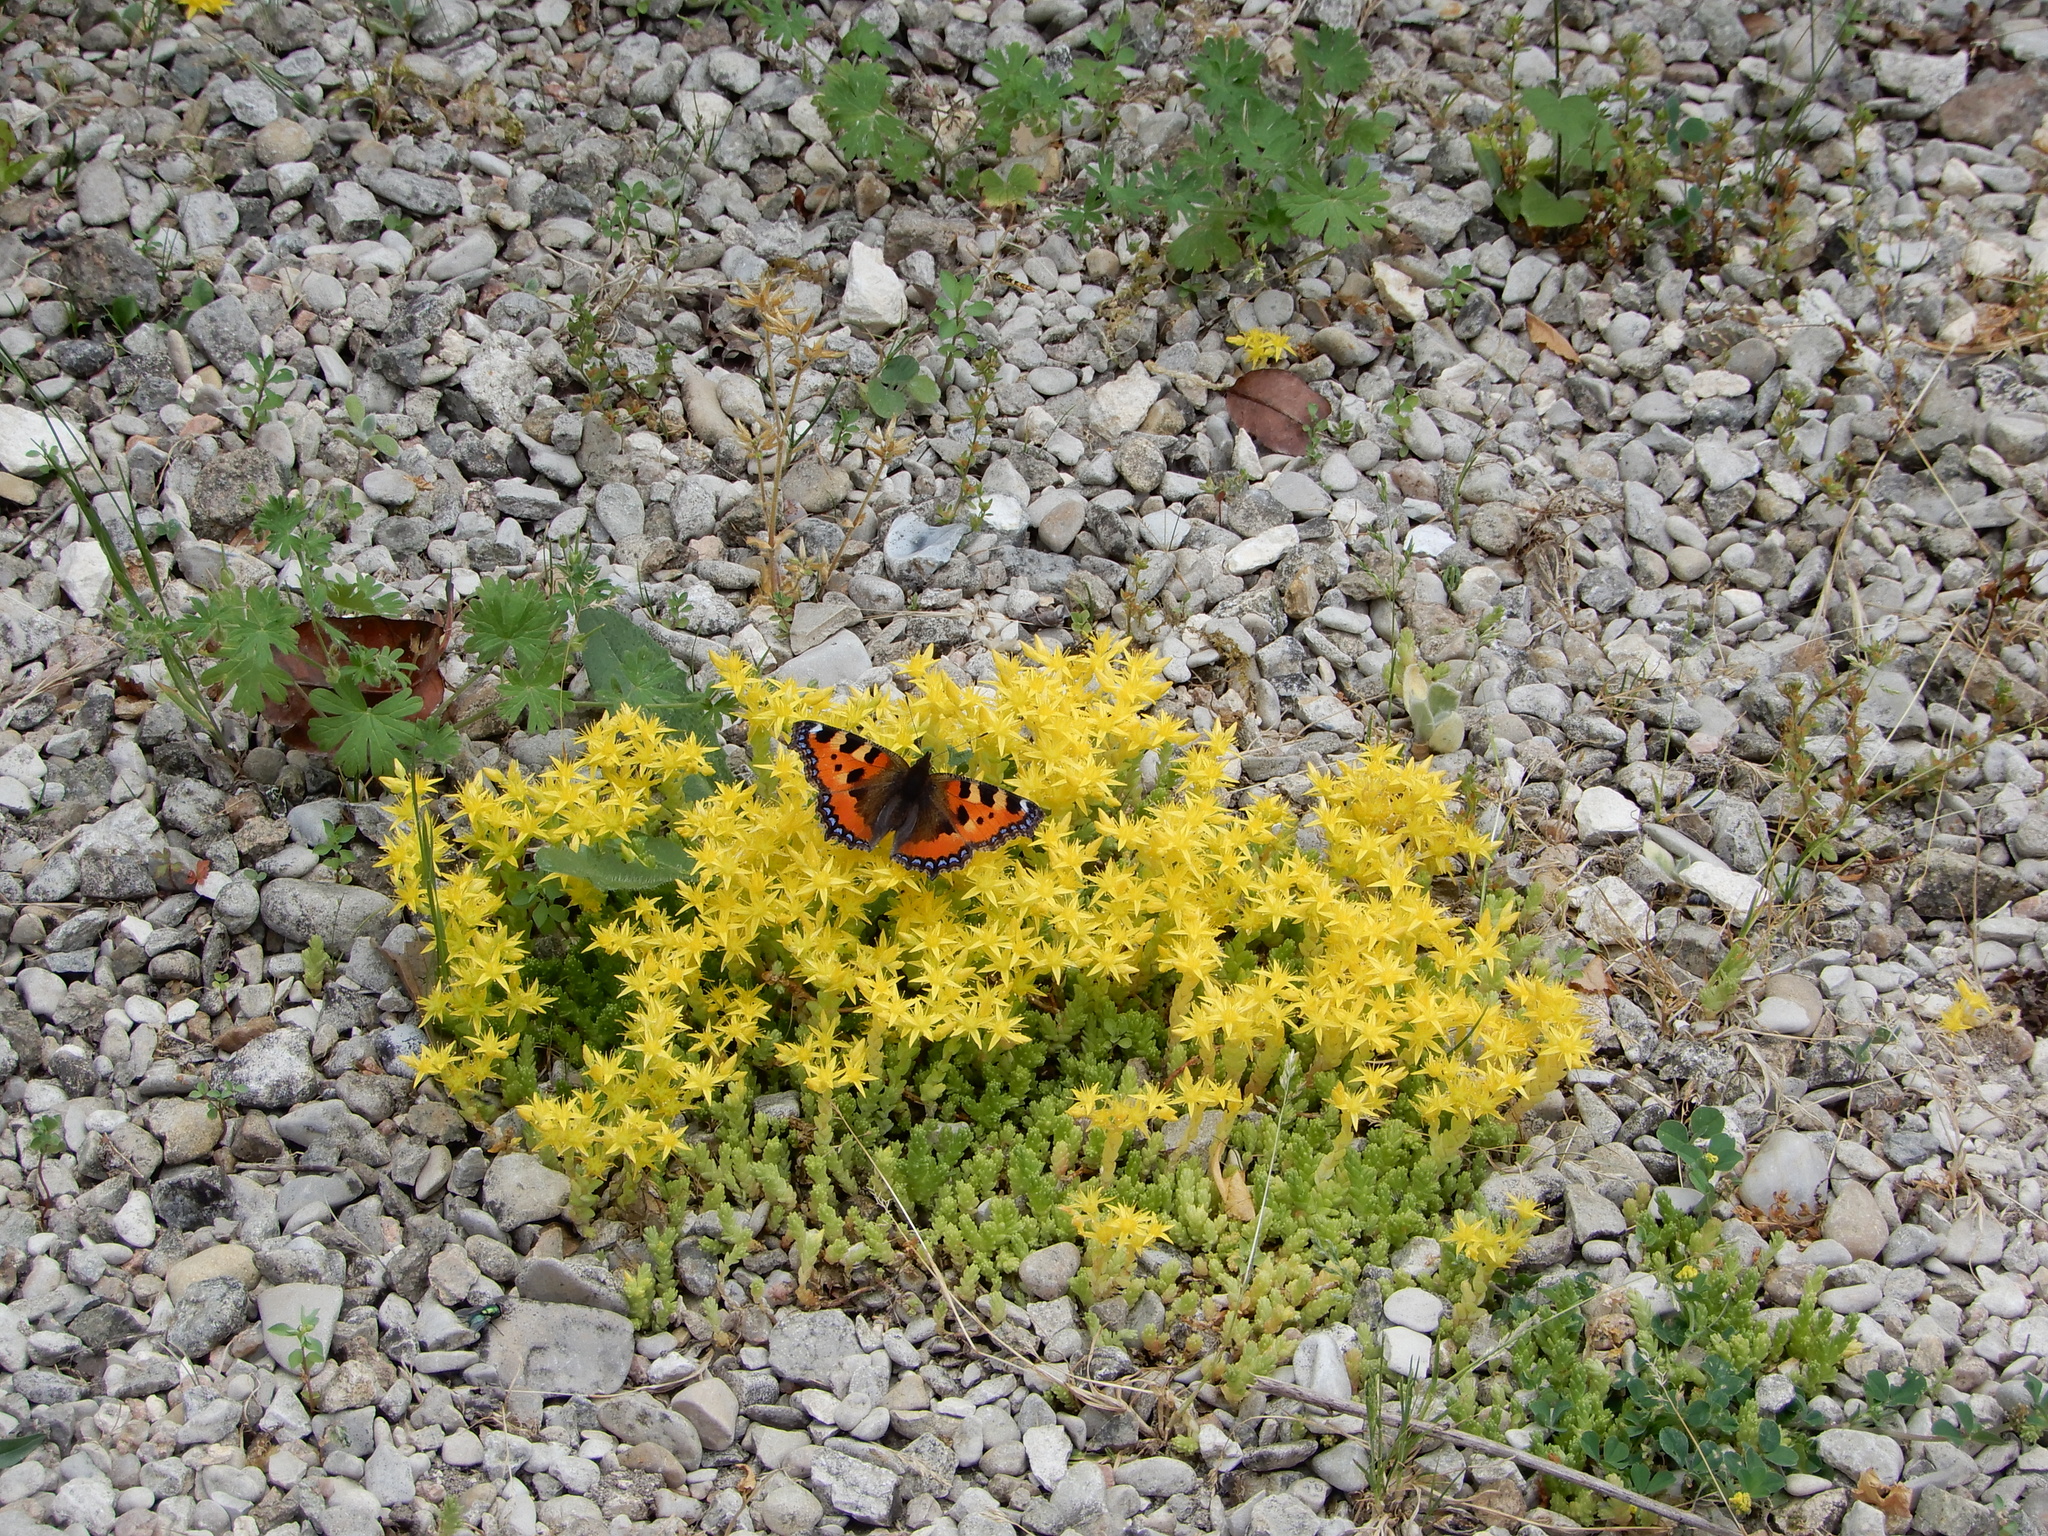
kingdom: Animalia
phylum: Arthropoda
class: Insecta
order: Lepidoptera
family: Nymphalidae
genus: Aglais
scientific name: Aglais urticae
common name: Small tortoiseshell
